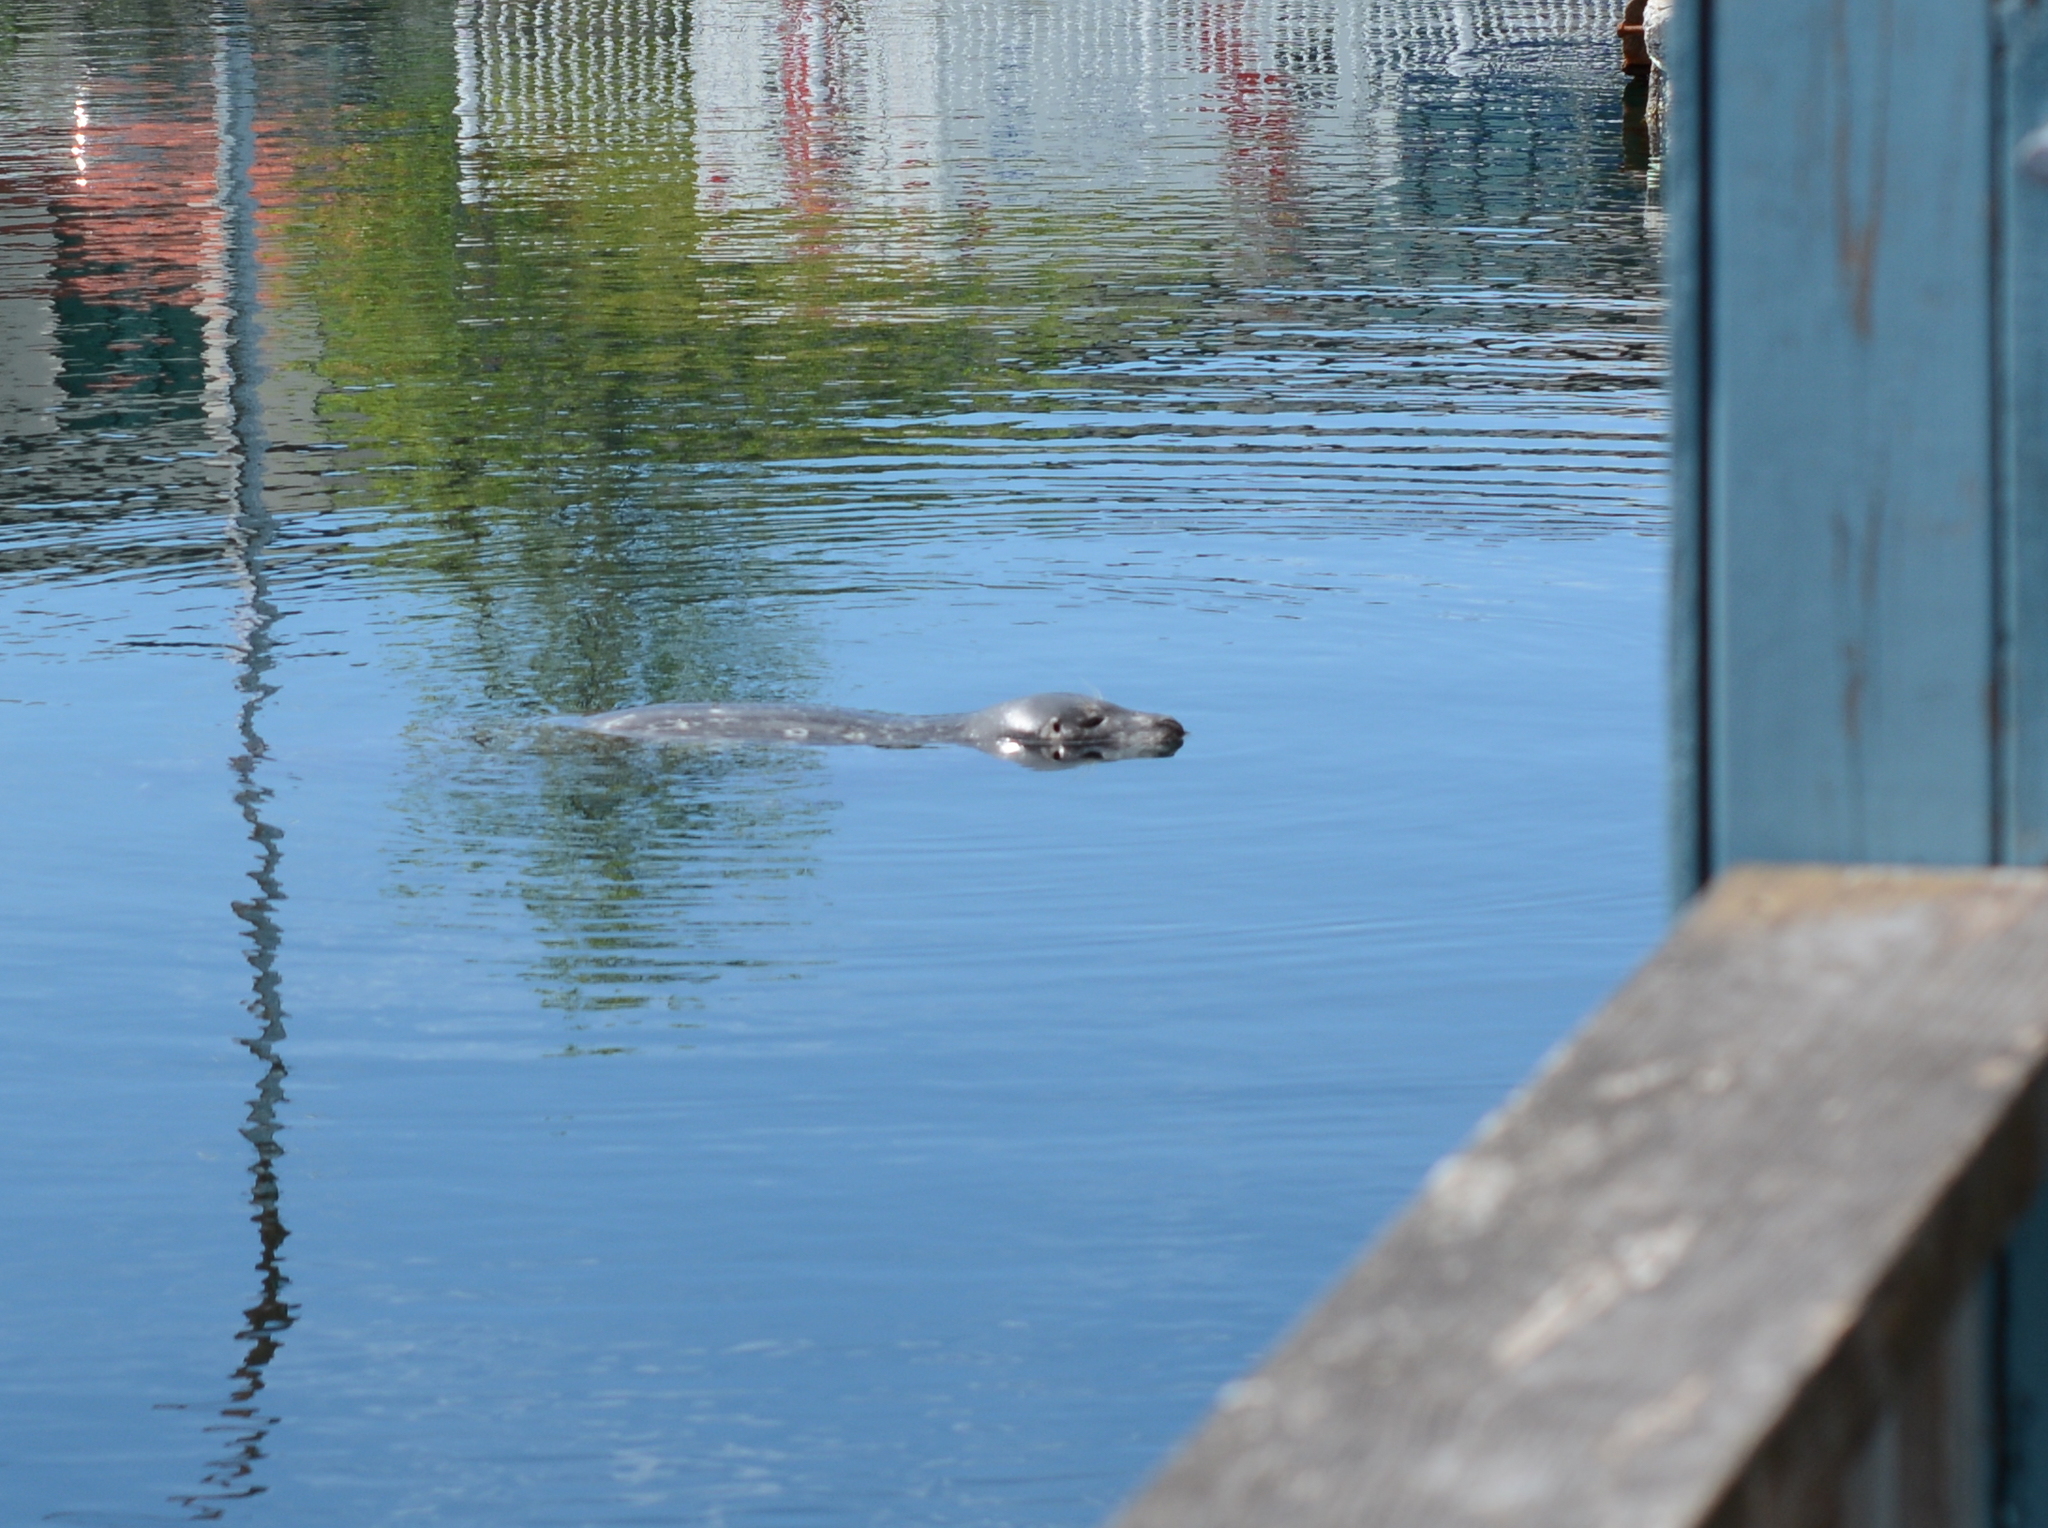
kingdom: Animalia
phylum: Chordata
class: Mammalia
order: Carnivora
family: Phocidae
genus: Phoca
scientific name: Phoca vitulina
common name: Harbor seal
